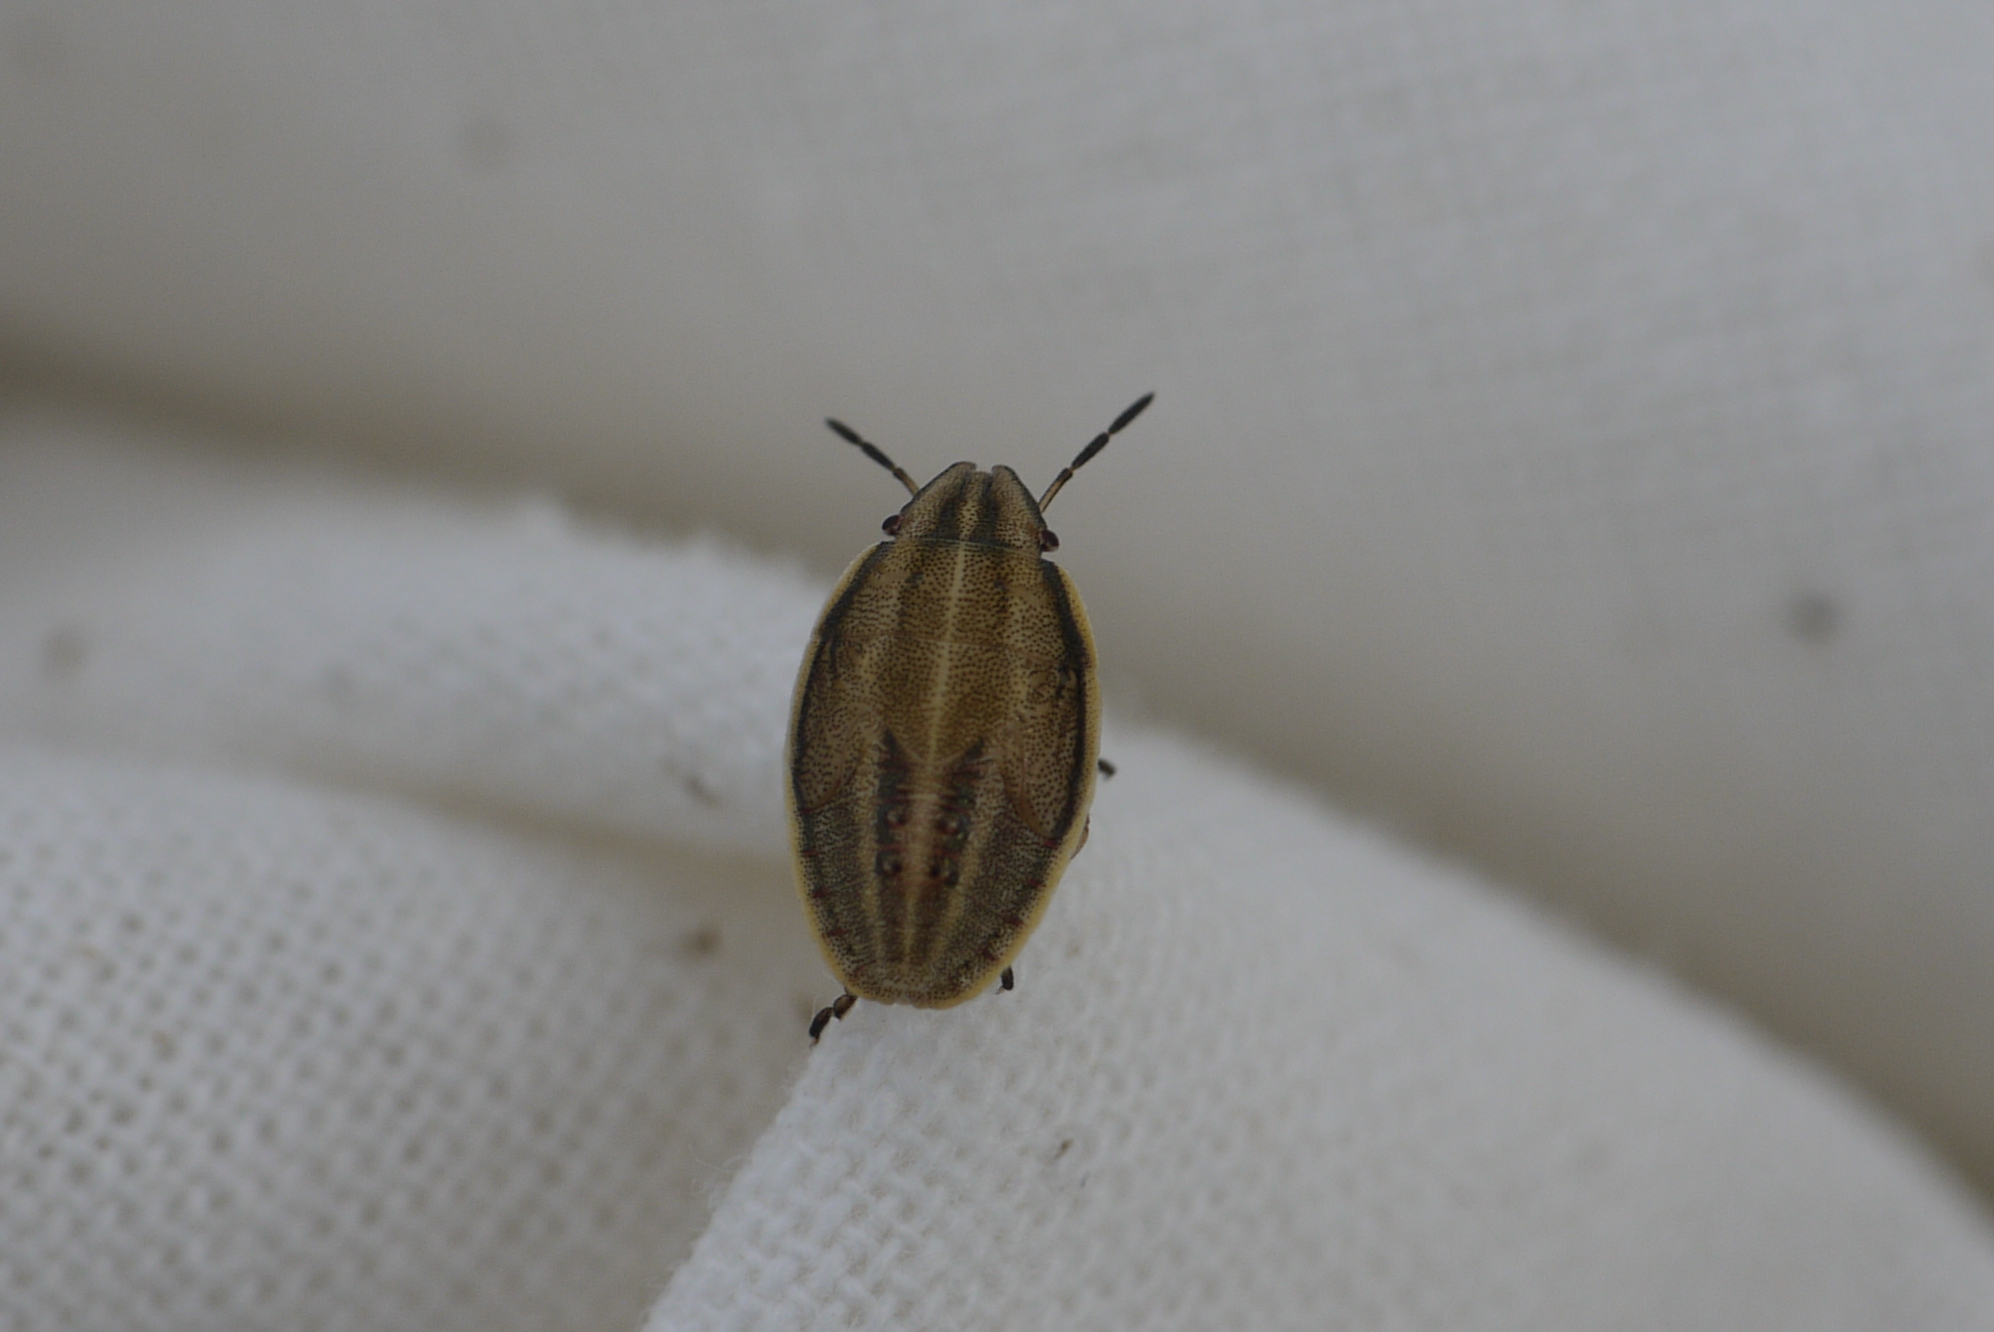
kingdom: Animalia
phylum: Arthropoda
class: Insecta
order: Hemiptera
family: Pentatomidae
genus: Aelia
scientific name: Aelia acuminata
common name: Bishop's mitre
